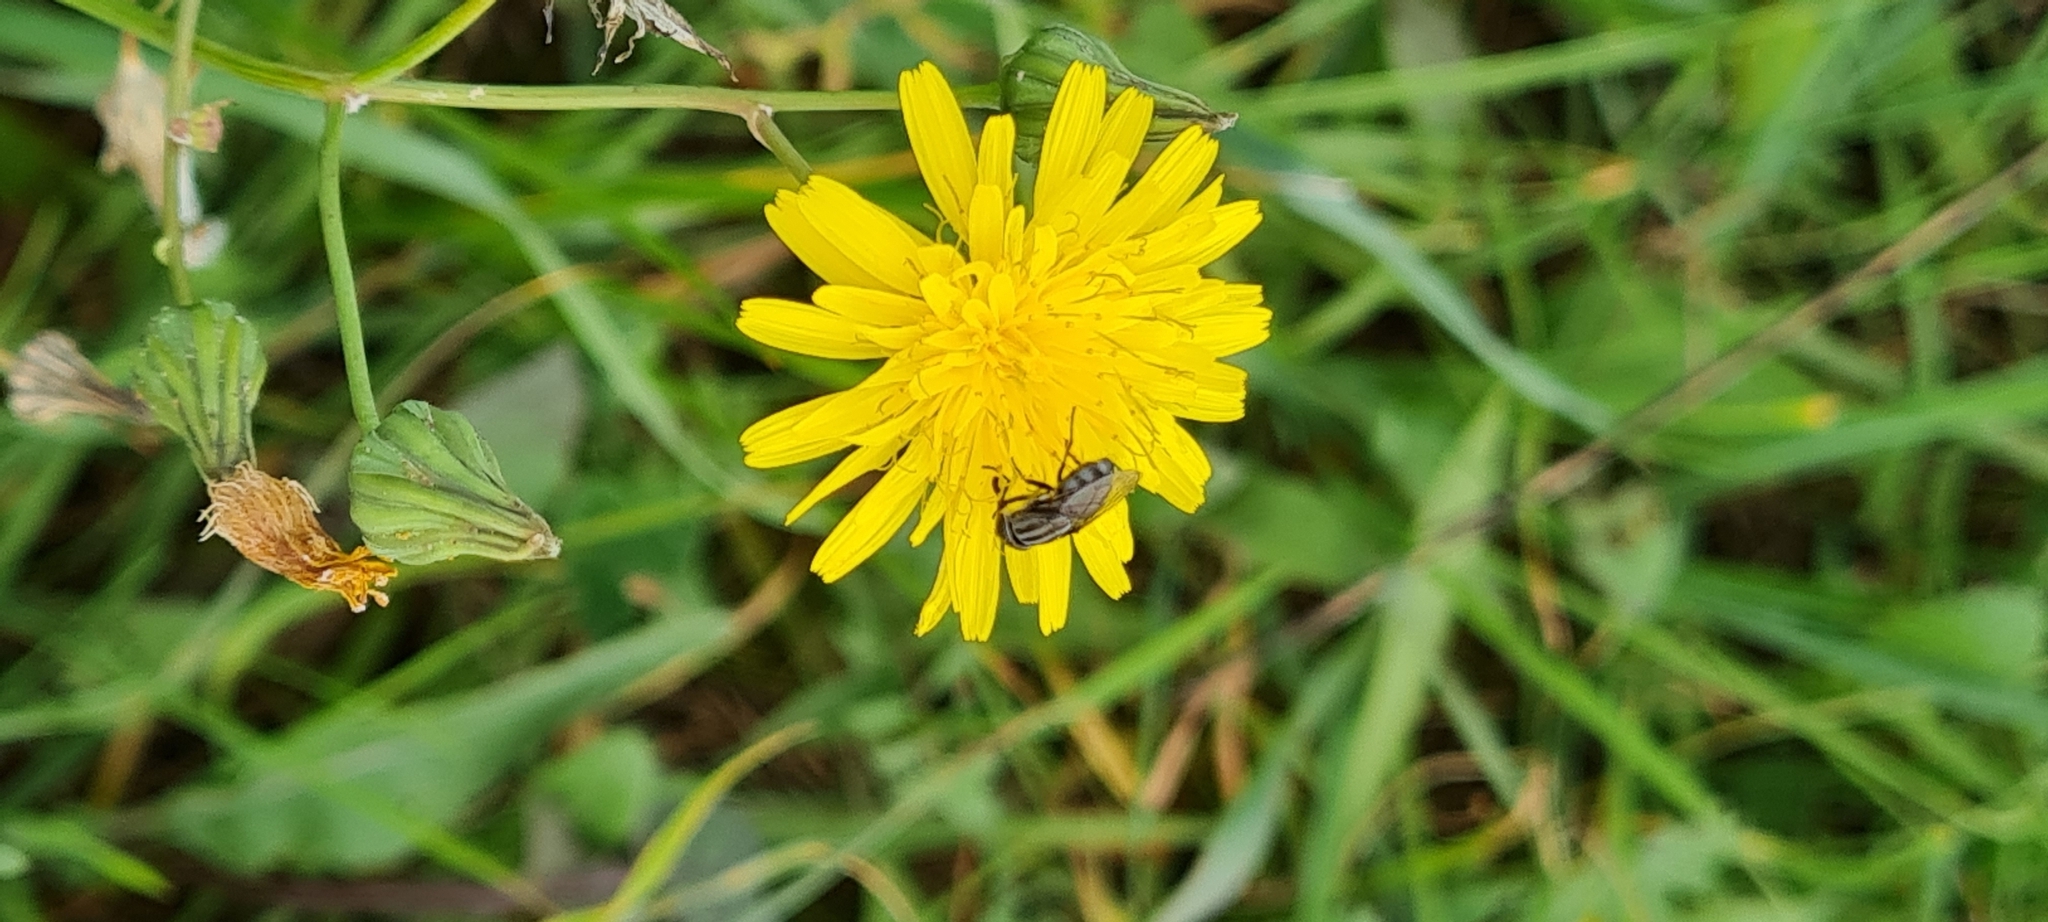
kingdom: Animalia
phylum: Arthropoda
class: Insecta
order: Diptera
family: Calliphoridae
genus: Stomorhina
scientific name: Stomorhina lunata
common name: Locust blowfly
